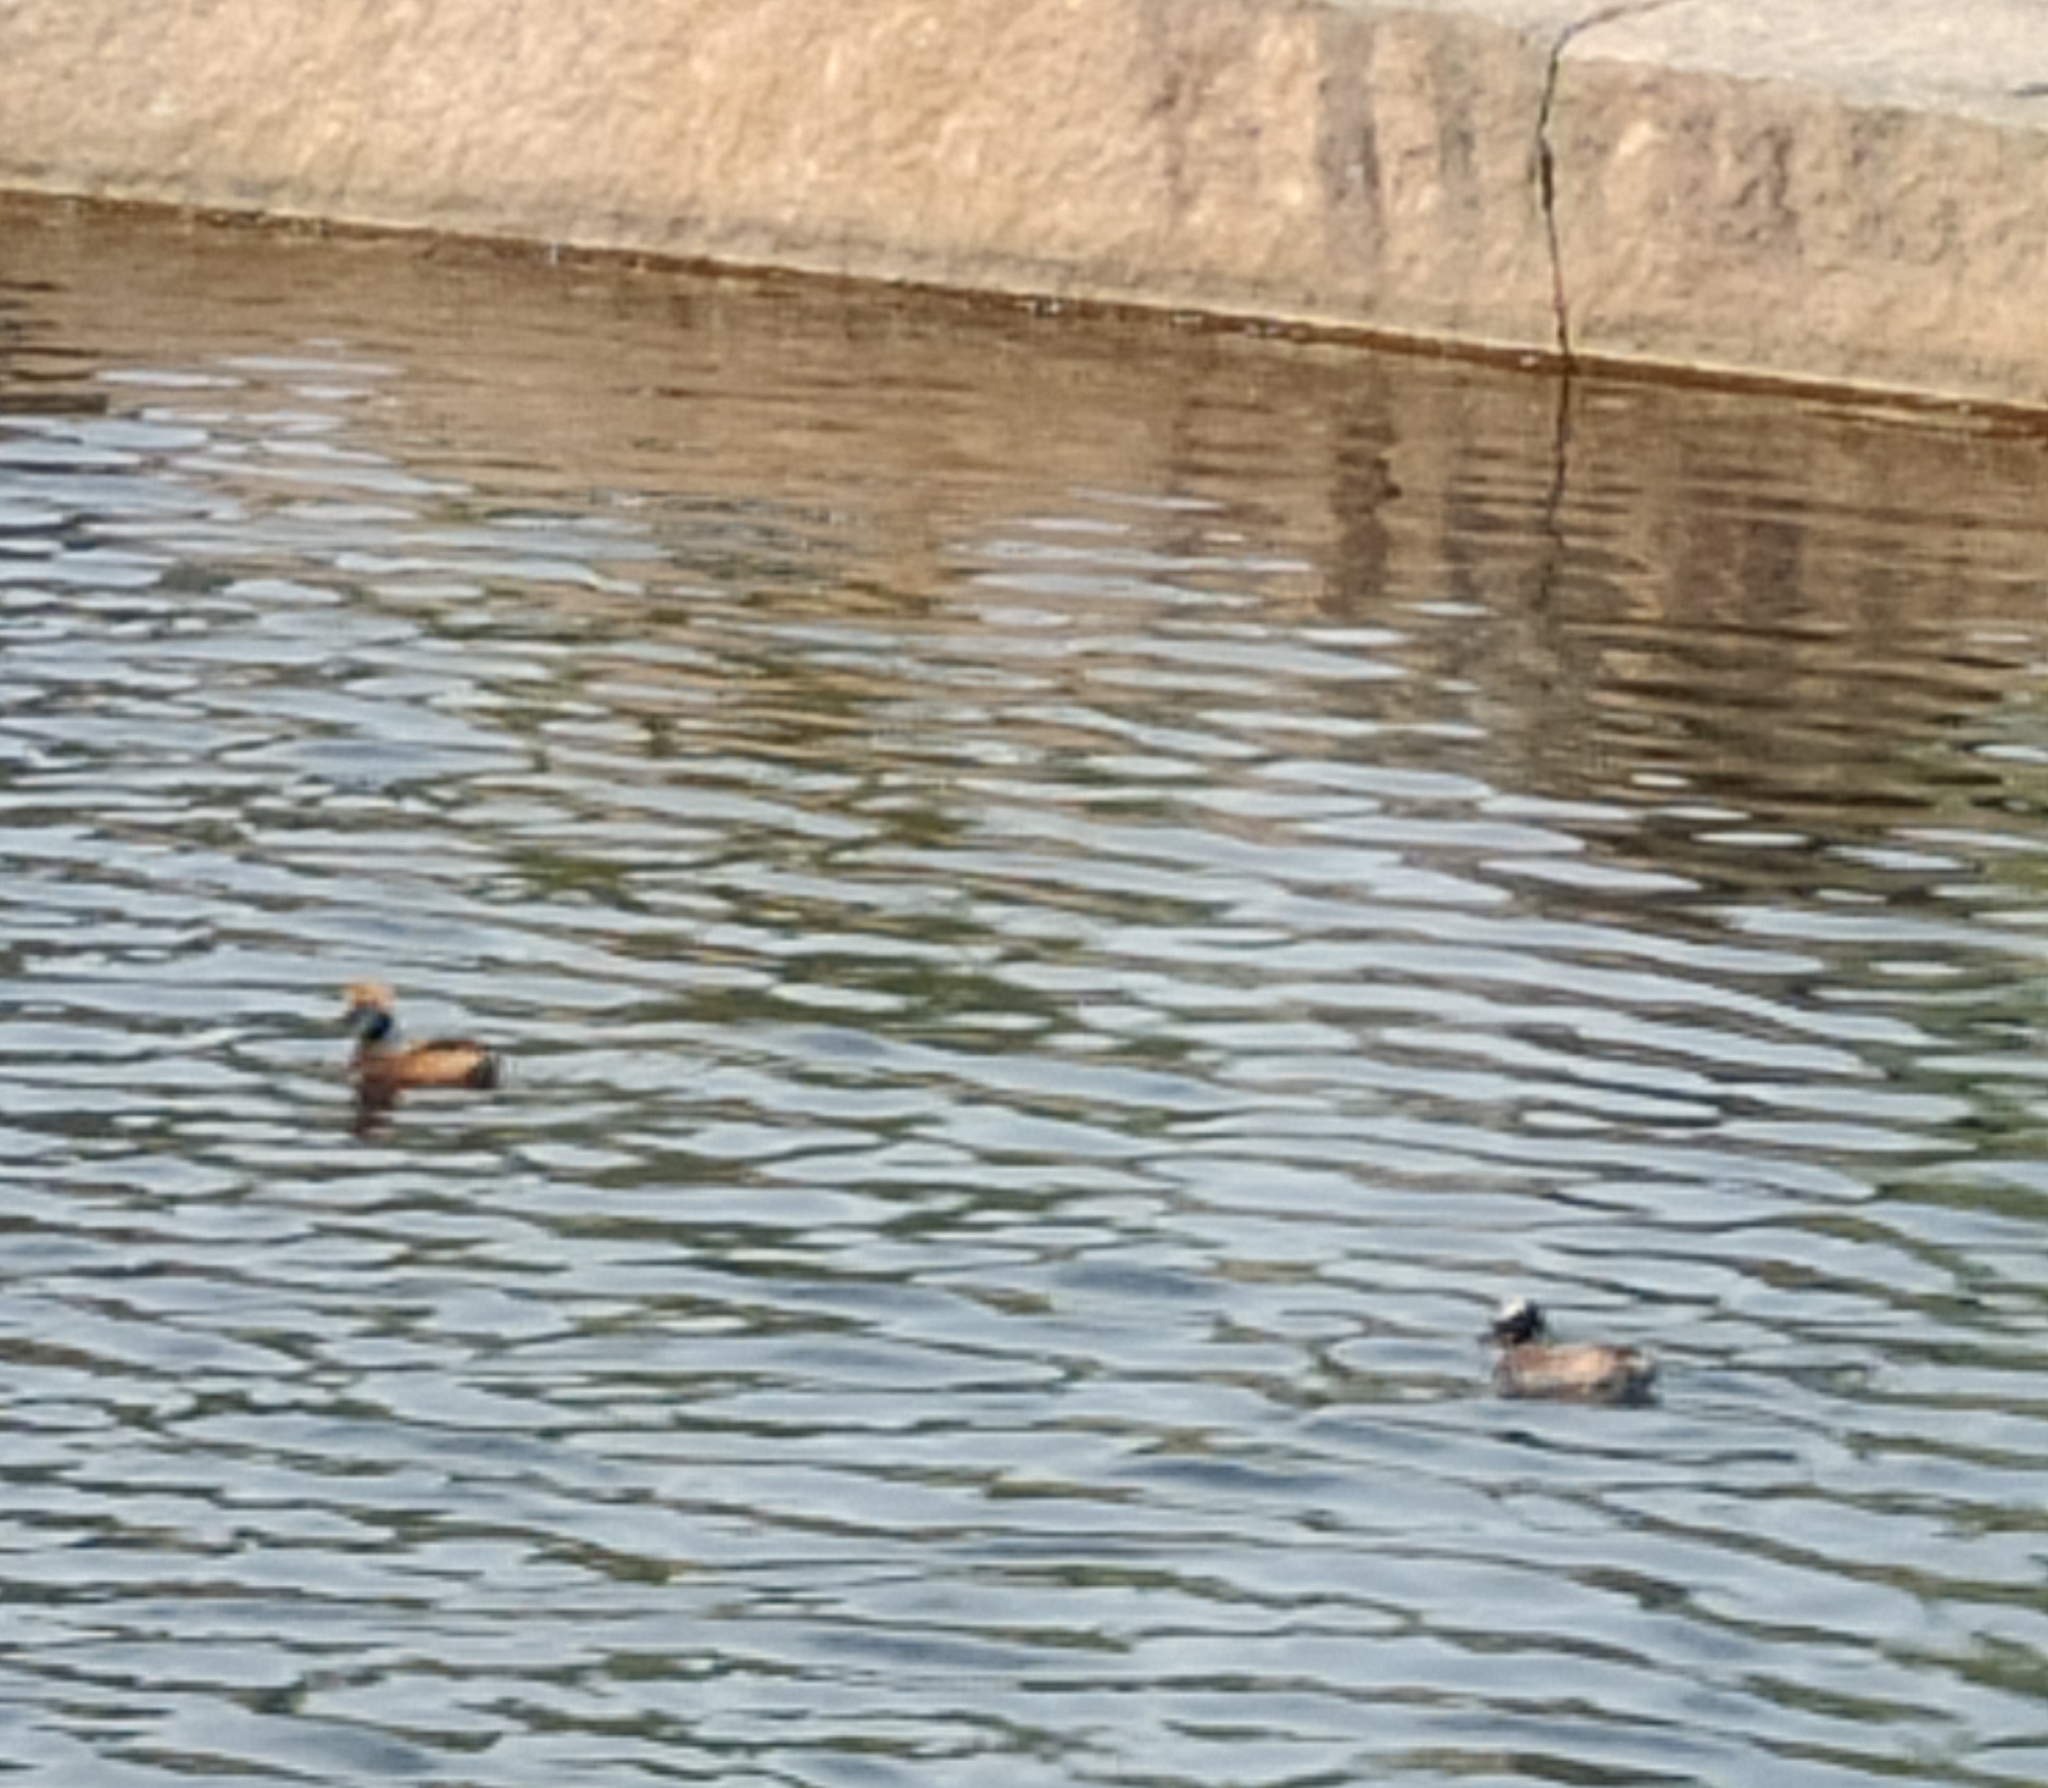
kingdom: Animalia
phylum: Chordata
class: Aves
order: Podicipediformes
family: Podicipedidae
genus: Podiceps
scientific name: Podiceps auritus
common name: Horned grebe
